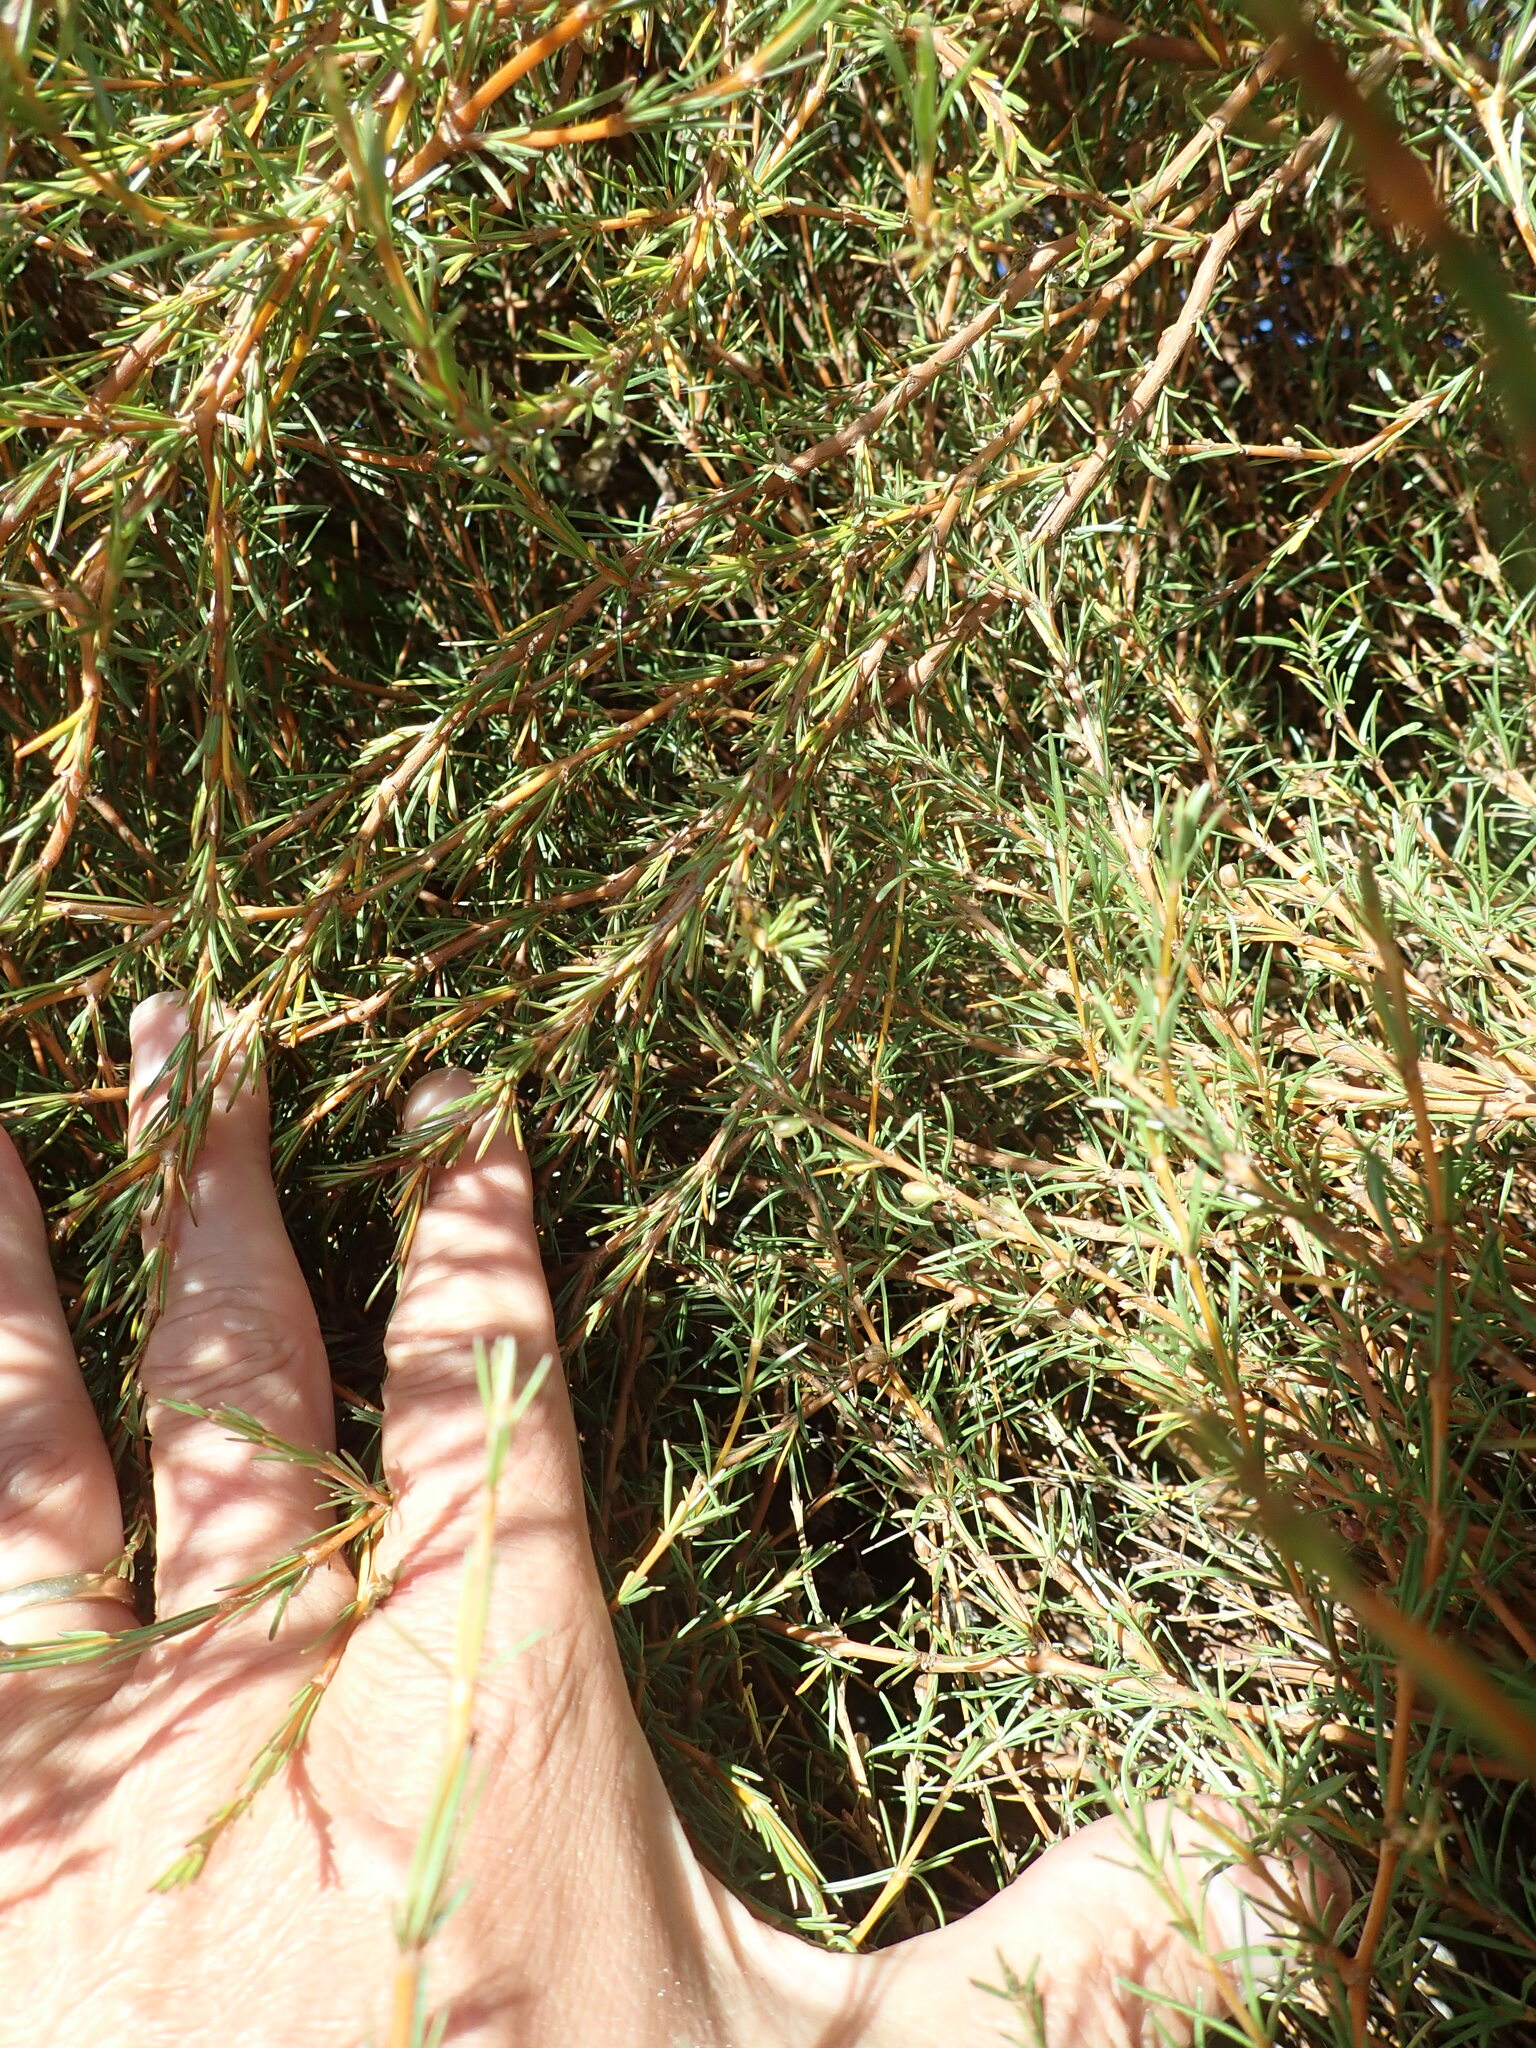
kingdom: Plantae
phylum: Tracheophyta
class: Magnoliopsida
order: Gentianales
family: Rubiaceae
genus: Coprosma
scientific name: Coprosma acerosa
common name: Sand coprosma
